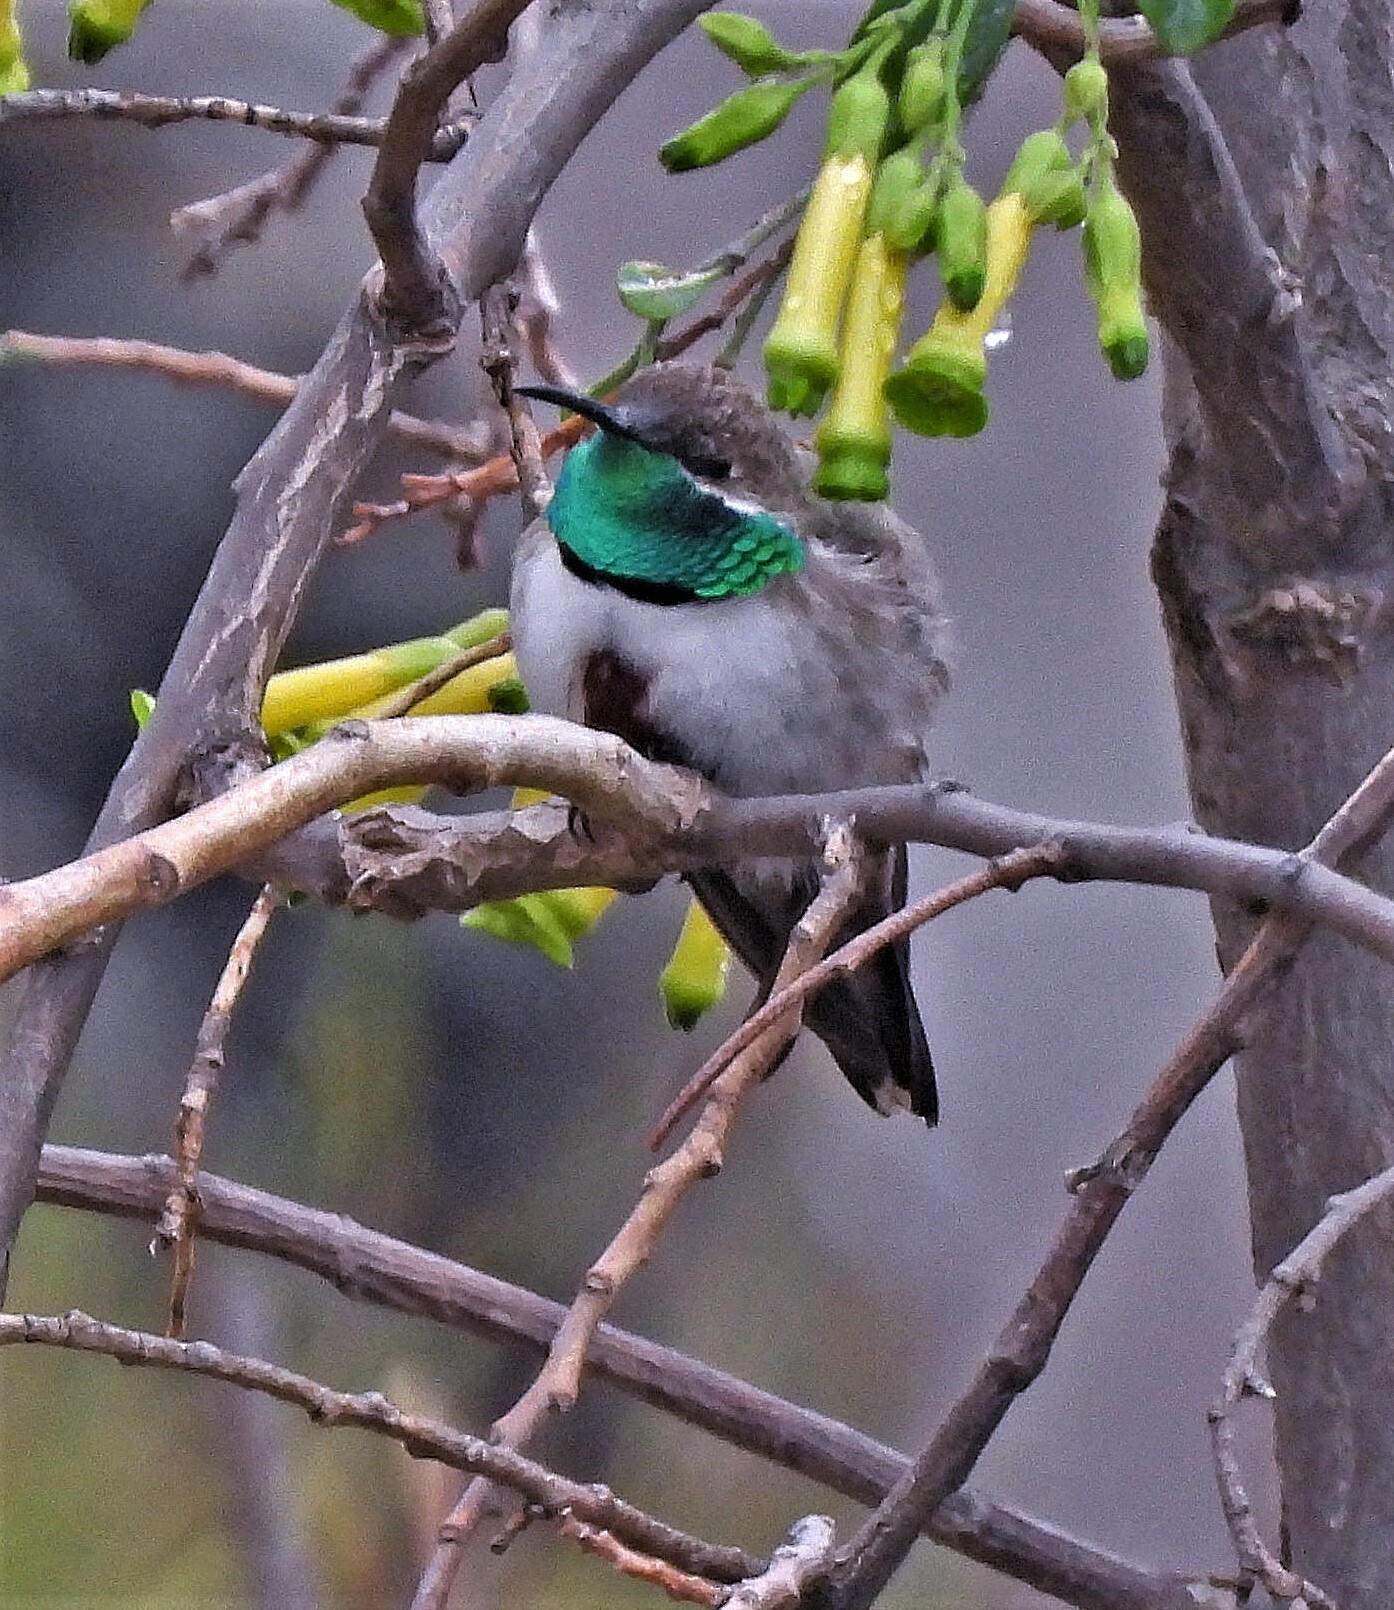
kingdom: Animalia
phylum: Chordata
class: Aves
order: Apodiformes
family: Trochilidae
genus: Oreotrochilus
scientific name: Oreotrochilus estella
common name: Andean hillstar
